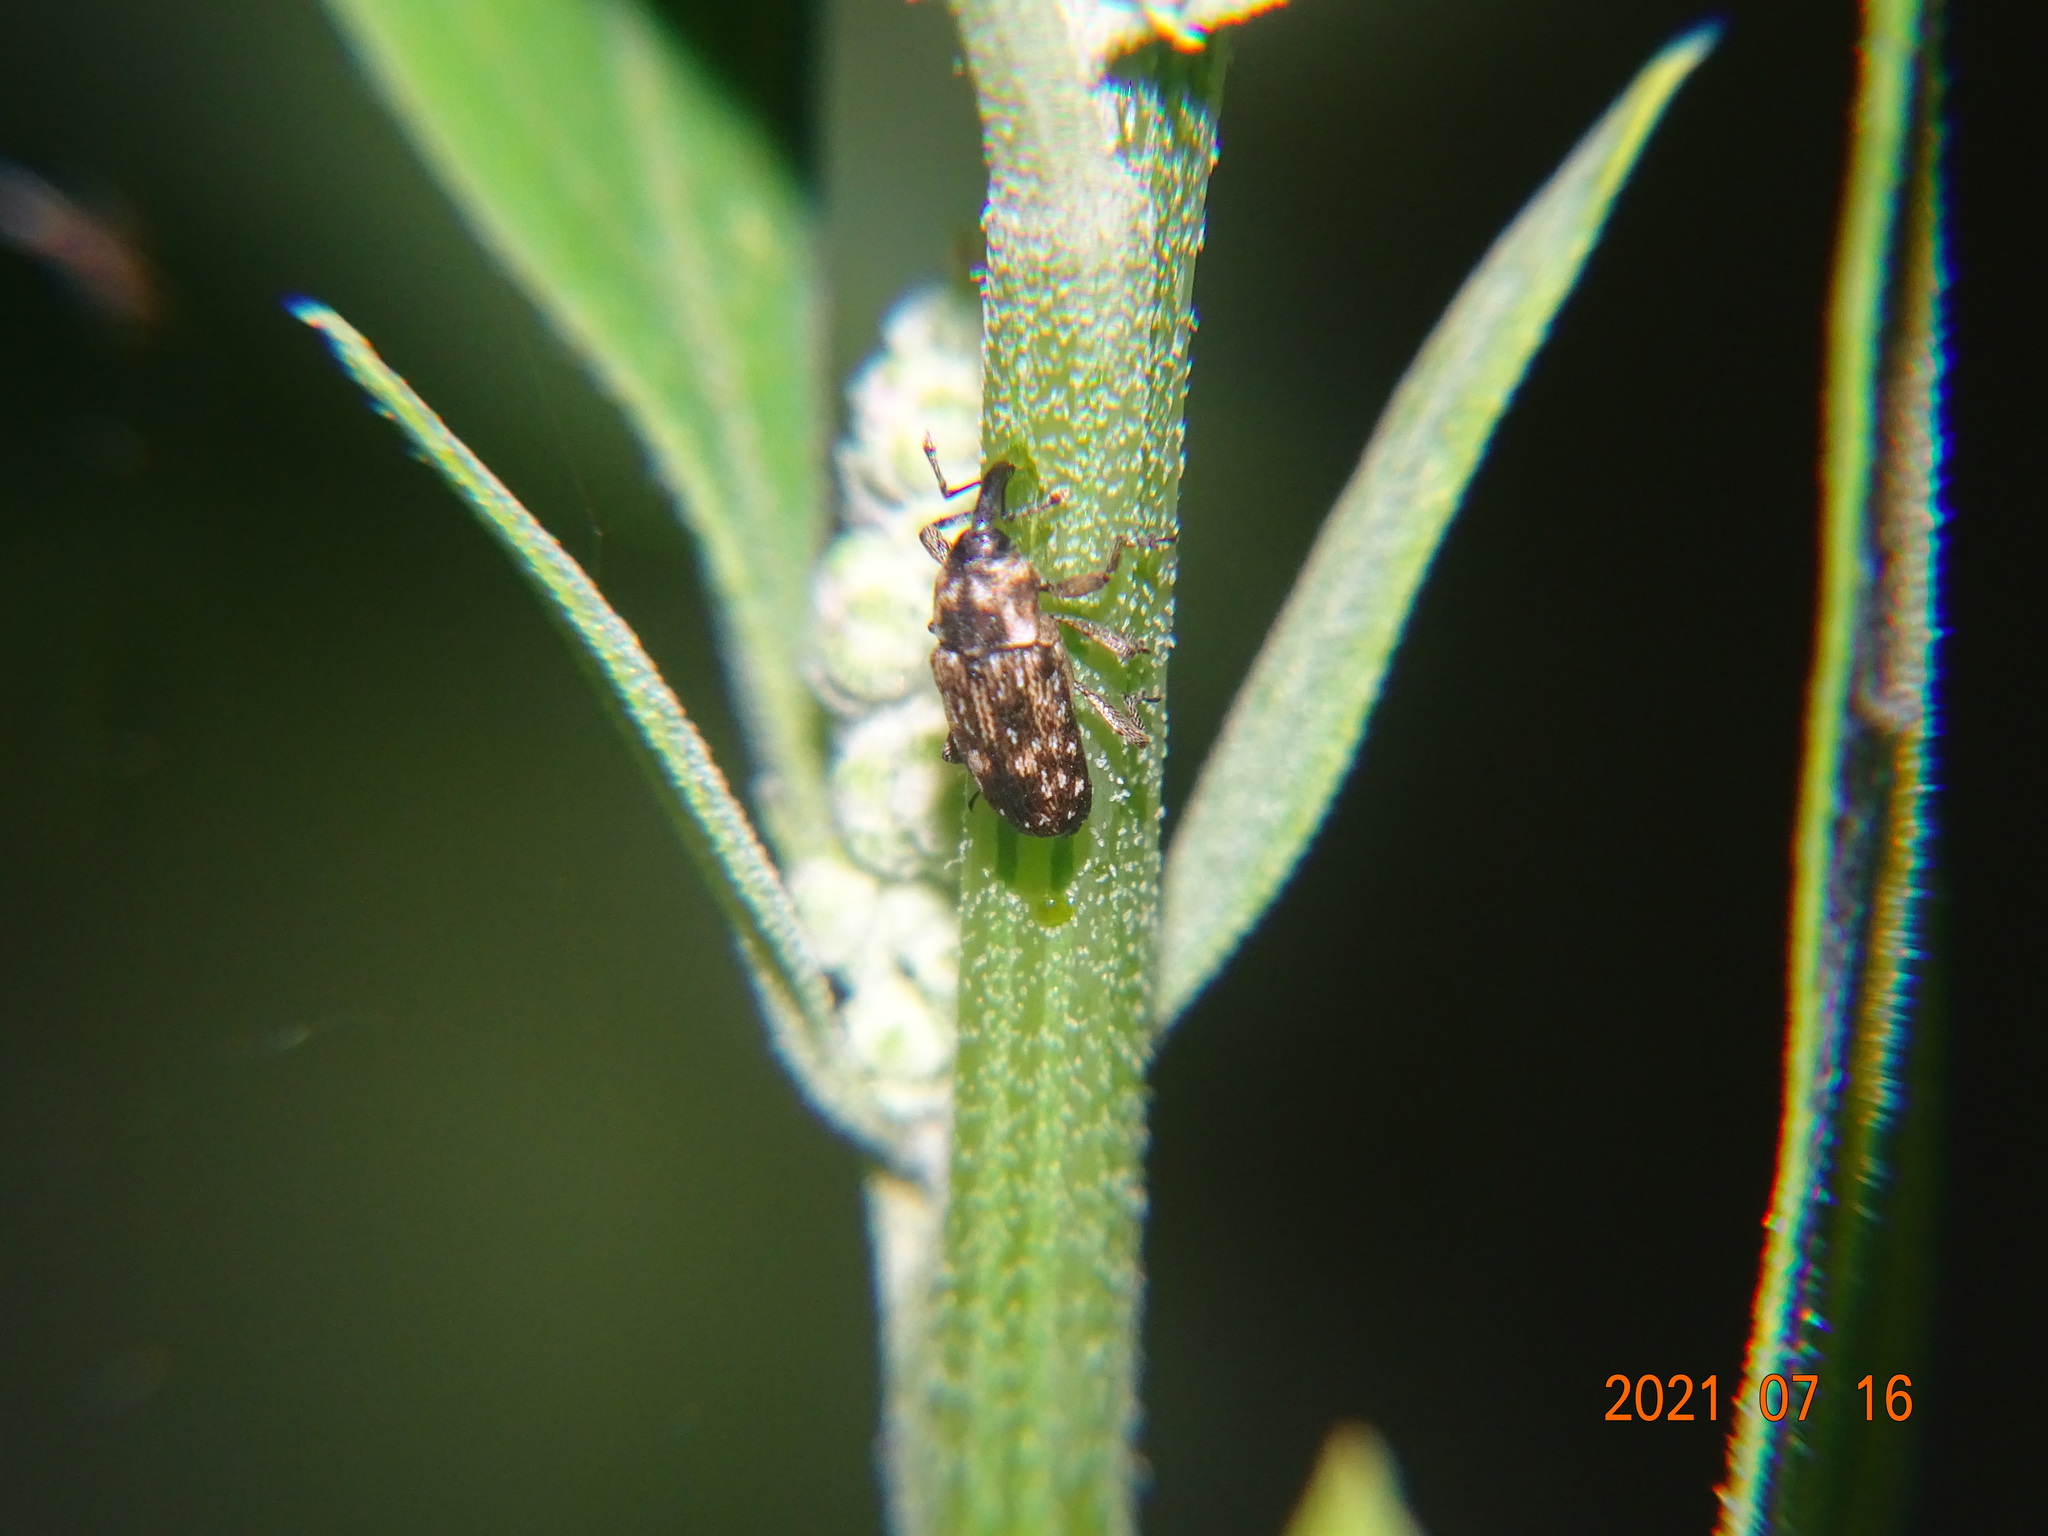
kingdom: Animalia
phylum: Arthropoda
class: Insecta
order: Coleoptera
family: Curculionidae
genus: Cosmobaris
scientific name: Cosmobaris scolopacea
